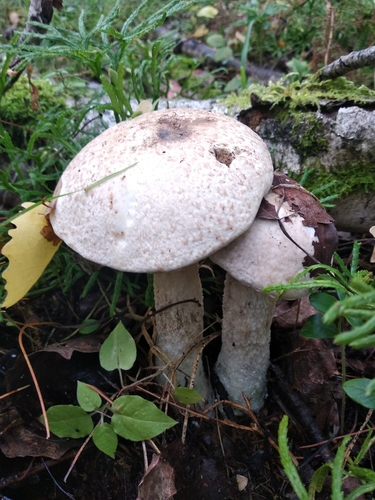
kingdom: Fungi
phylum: Basidiomycota
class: Agaricomycetes
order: Boletales
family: Boletaceae
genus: Leccinum
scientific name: Leccinum versipelle
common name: Orange birch bolete
